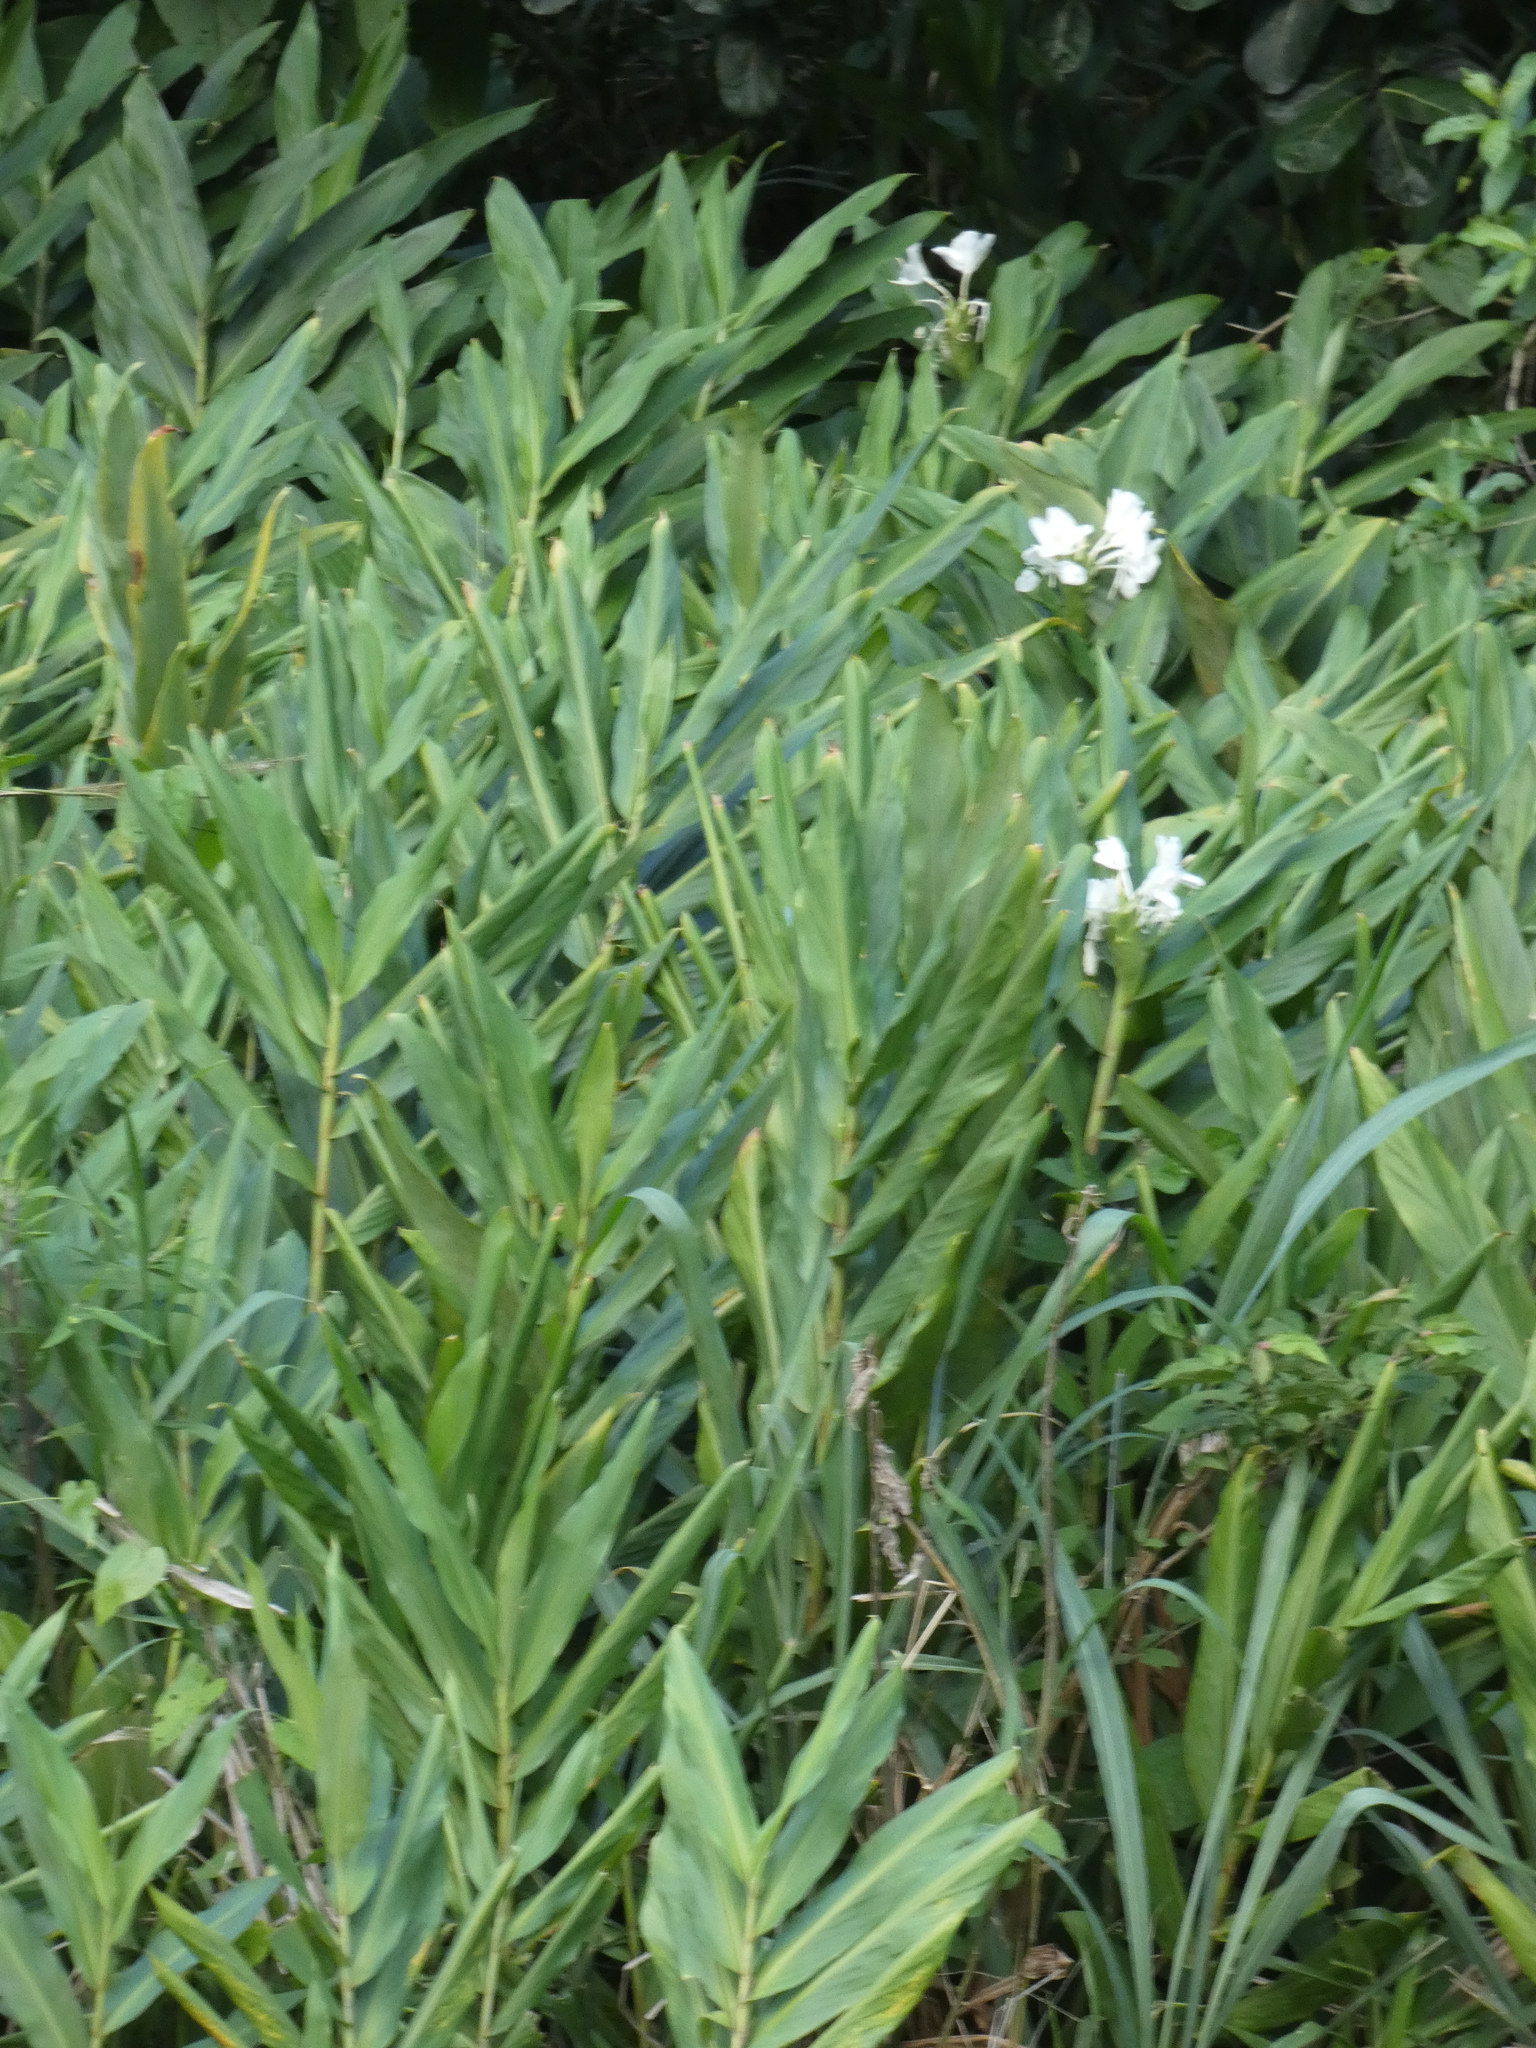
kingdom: Plantae
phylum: Tracheophyta
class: Liliopsida
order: Zingiberales
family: Zingiberaceae
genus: Hedychium
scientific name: Hedychium coronarium
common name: White garland-lily
